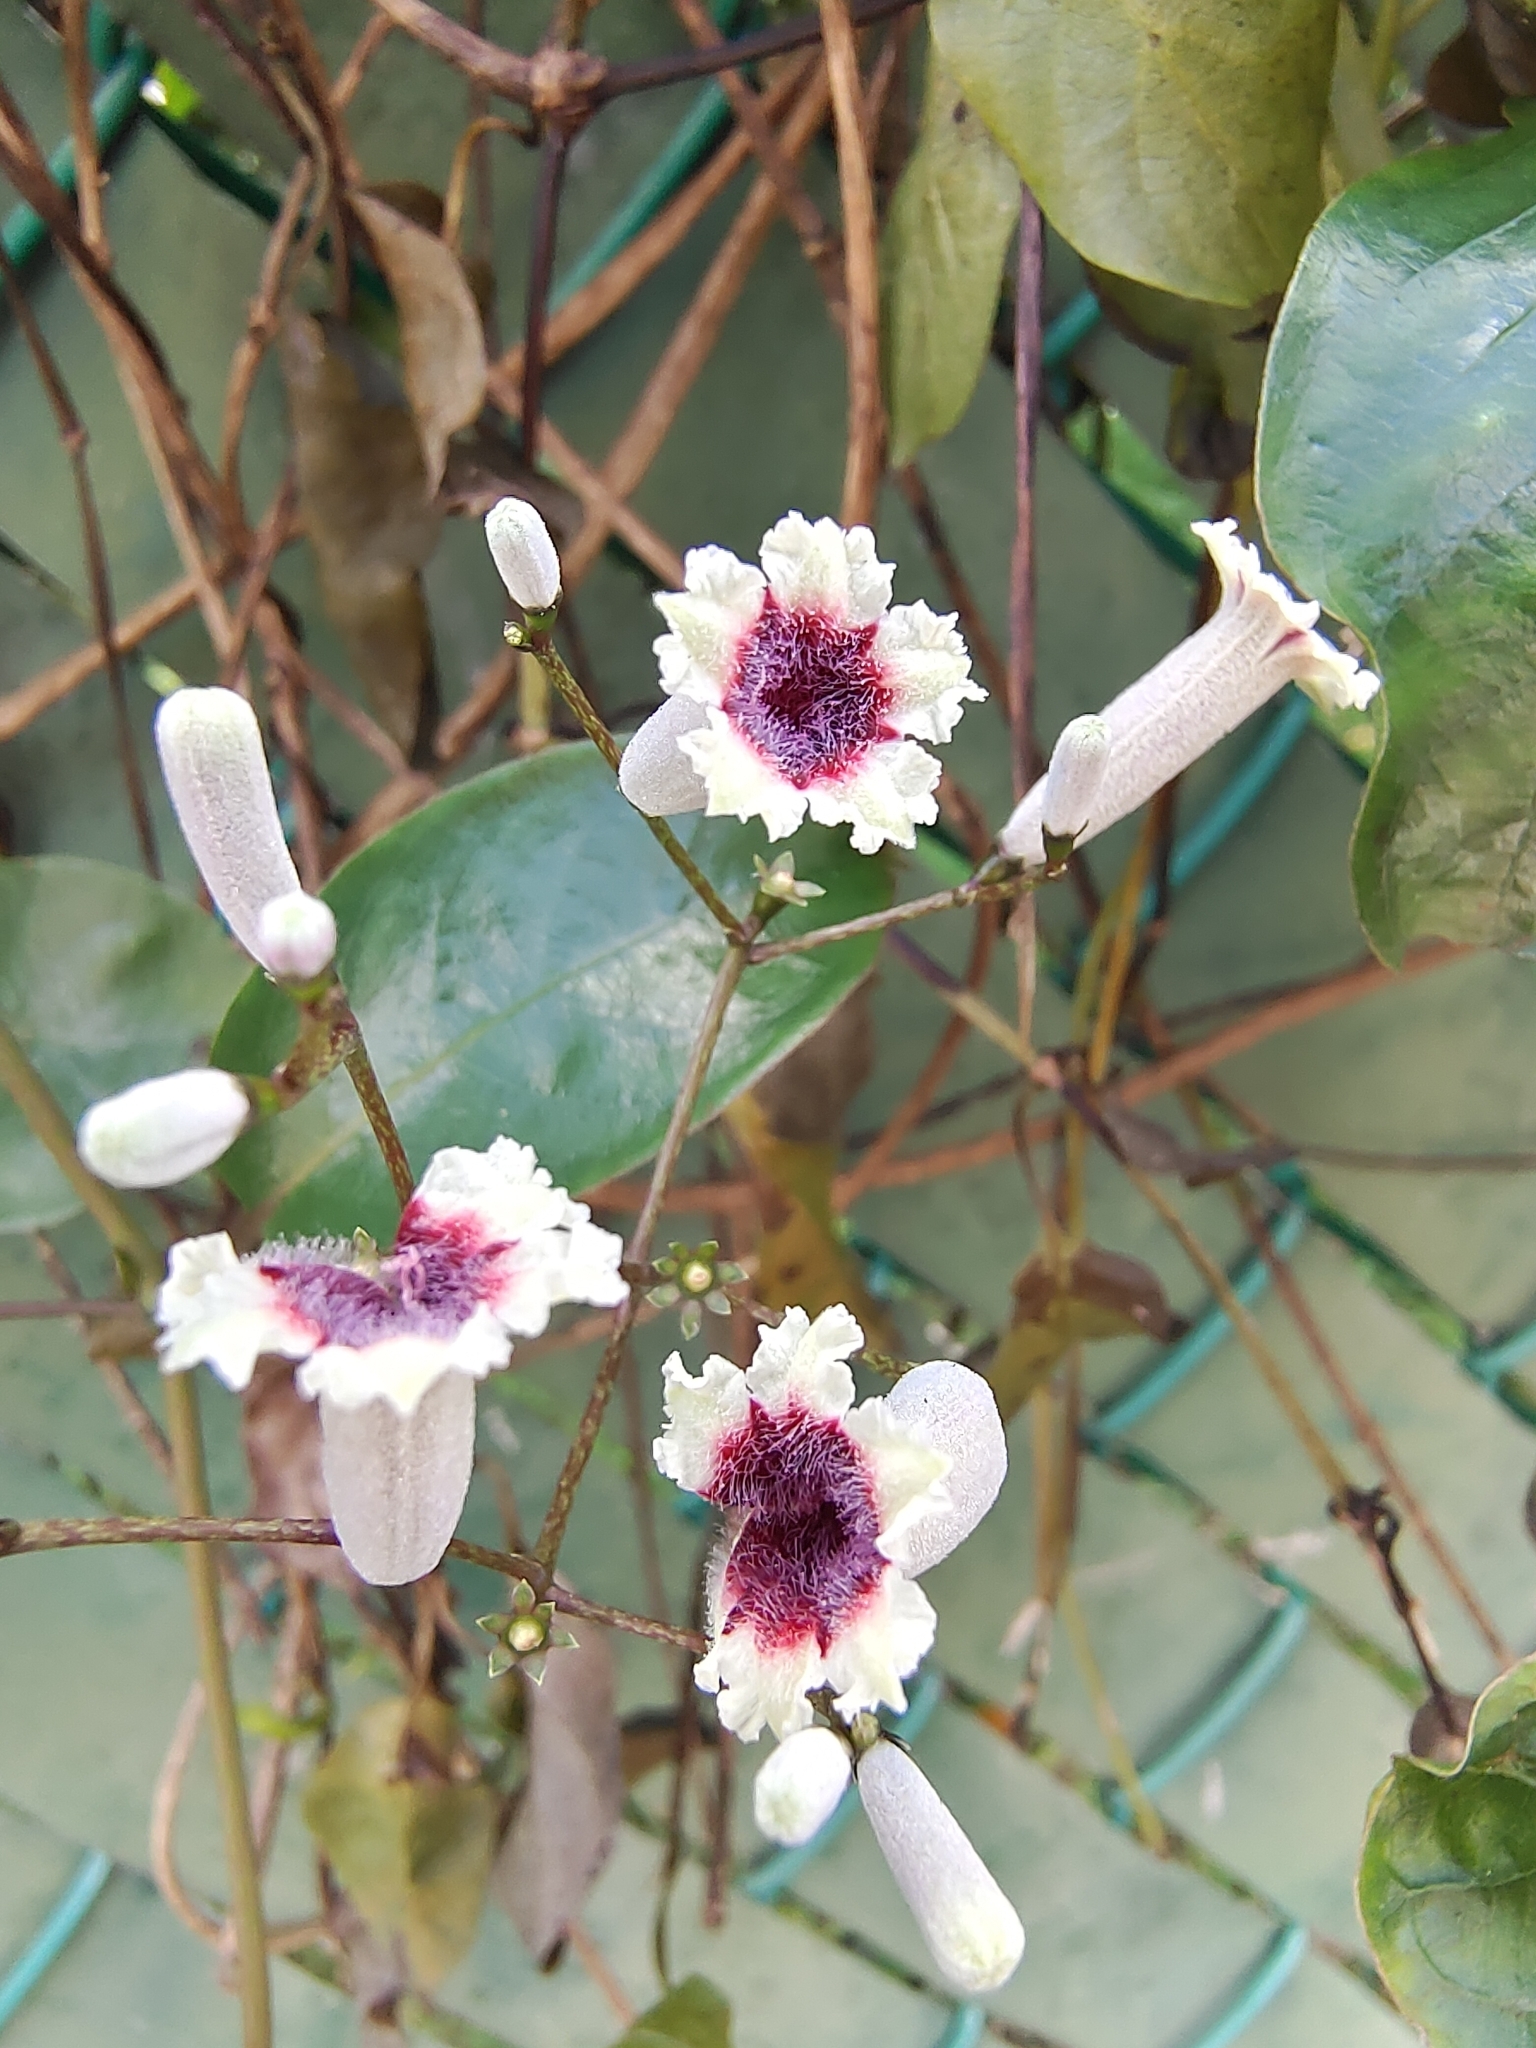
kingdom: Plantae
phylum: Tracheophyta
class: Magnoliopsida
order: Gentianales
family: Rubiaceae
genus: Paederia
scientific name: Paederia foetida
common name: Stinkvine
